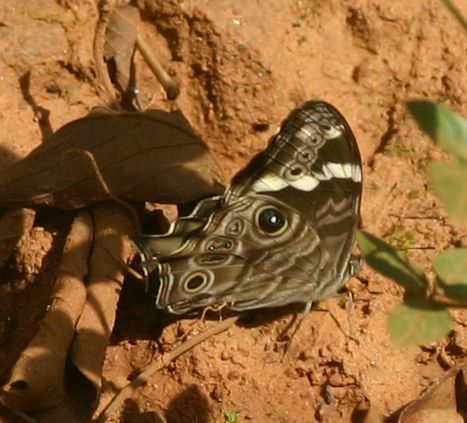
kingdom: Animalia
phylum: Arthropoda
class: Insecta
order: Lepidoptera
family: Nymphalidae
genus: Lethe
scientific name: Lethe rohria
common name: Common treebrown
